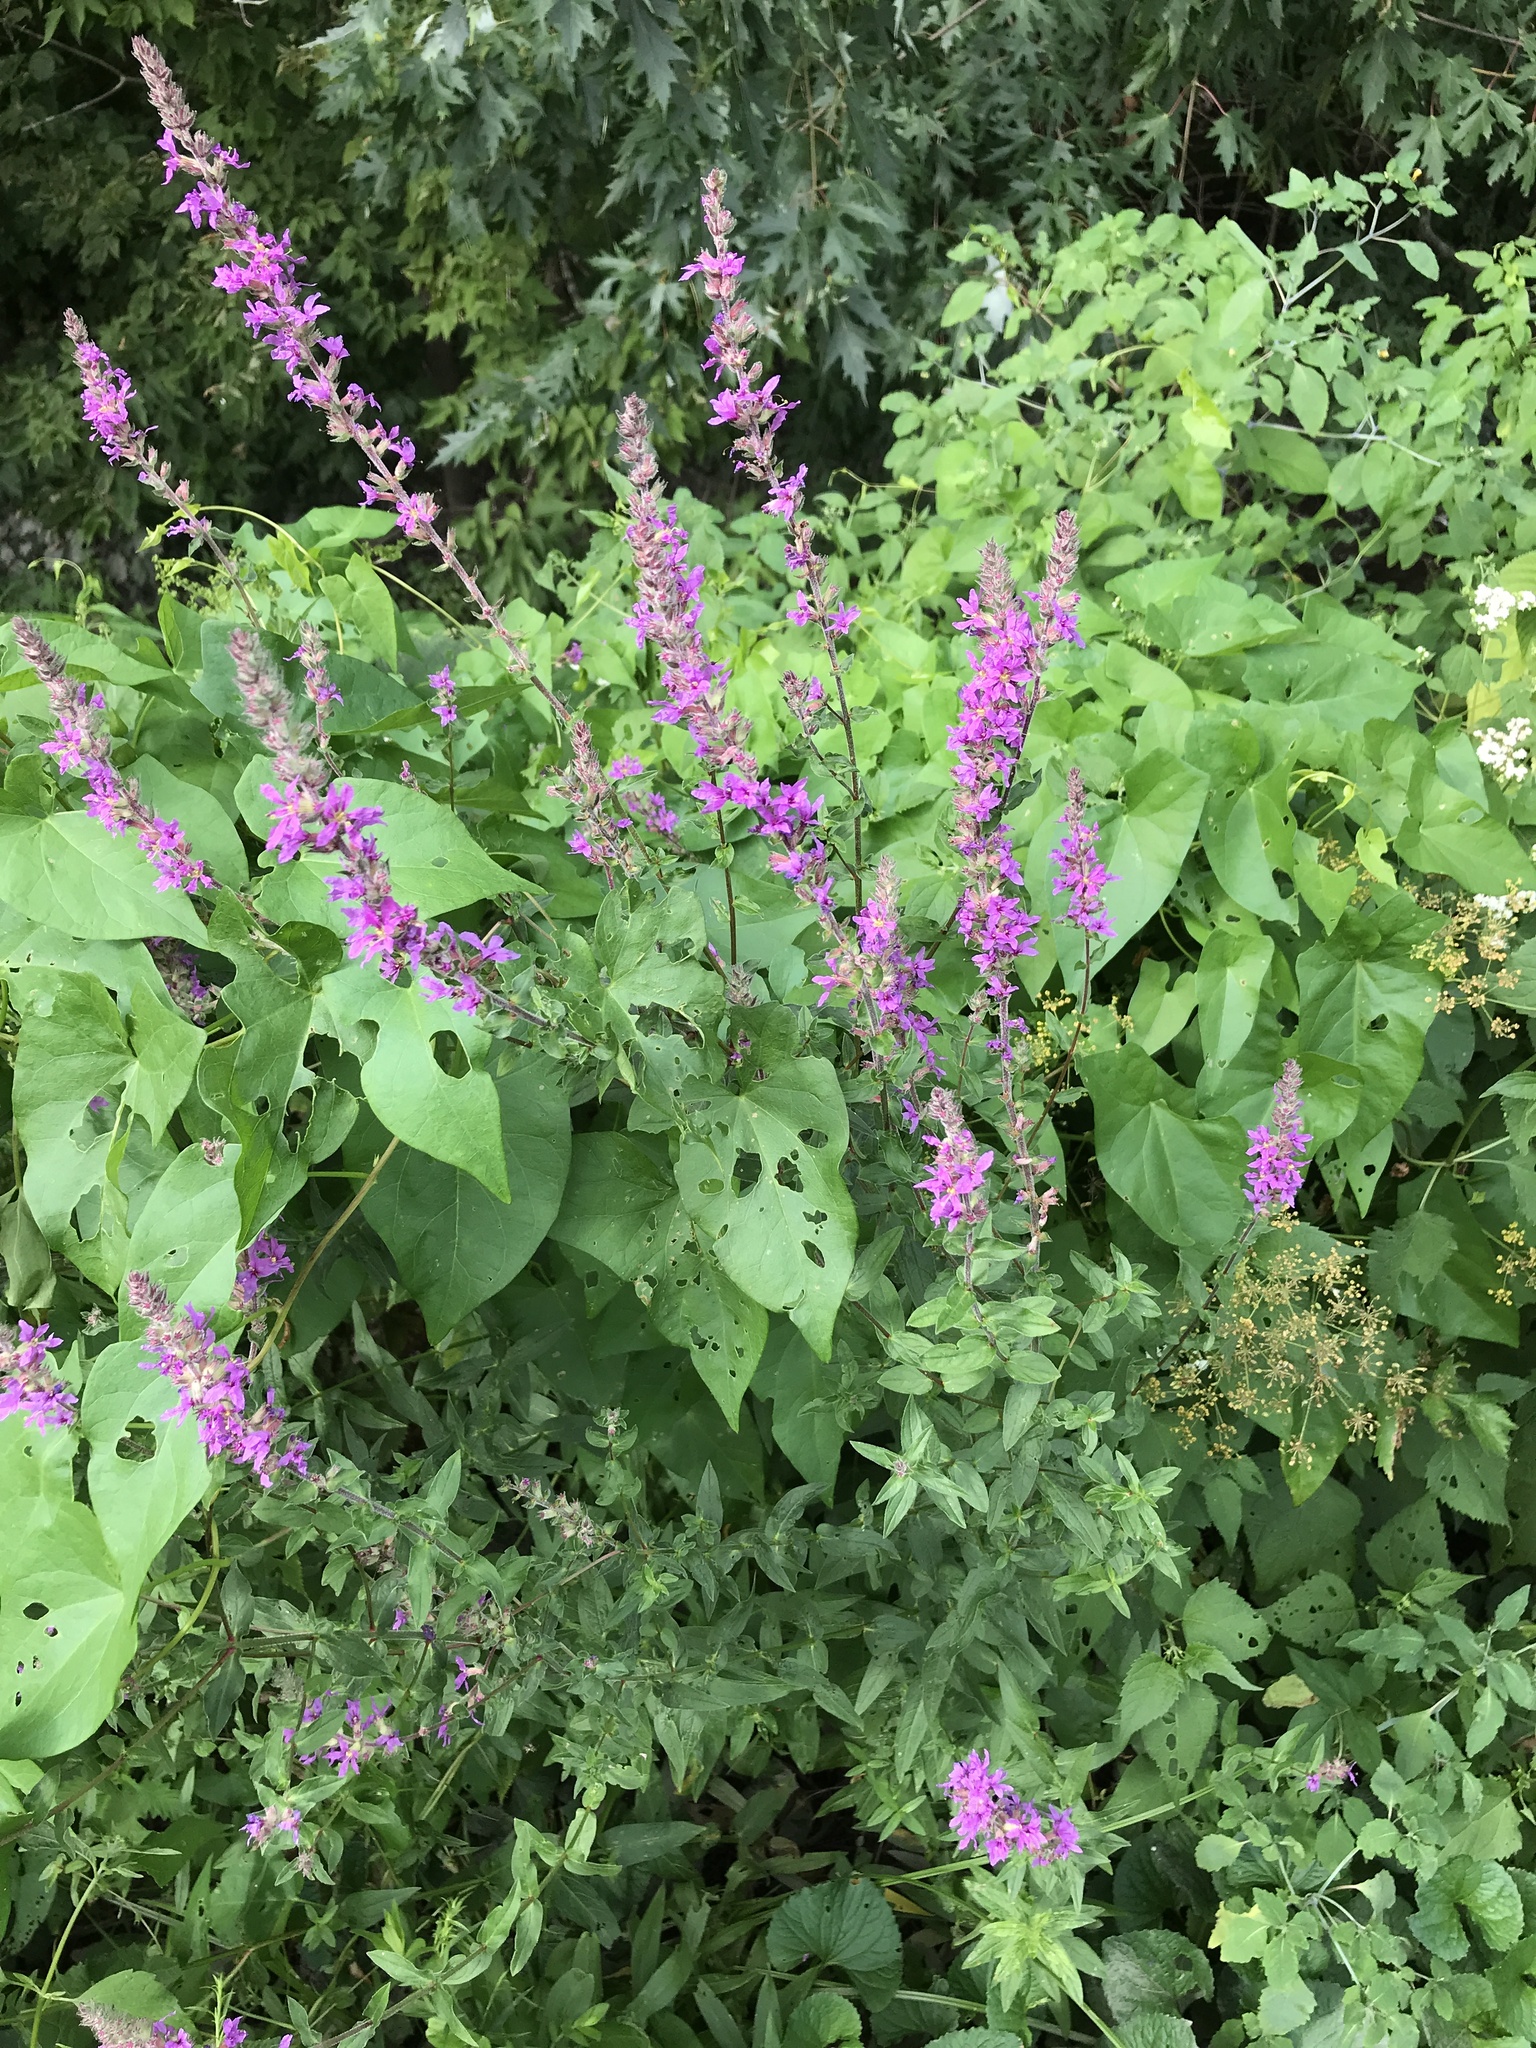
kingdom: Plantae
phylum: Tracheophyta
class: Magnoliopsida
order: Myrtales
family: Lythraceae
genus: Lythrum
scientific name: Lythrum salicaria
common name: Purple loosestrife
